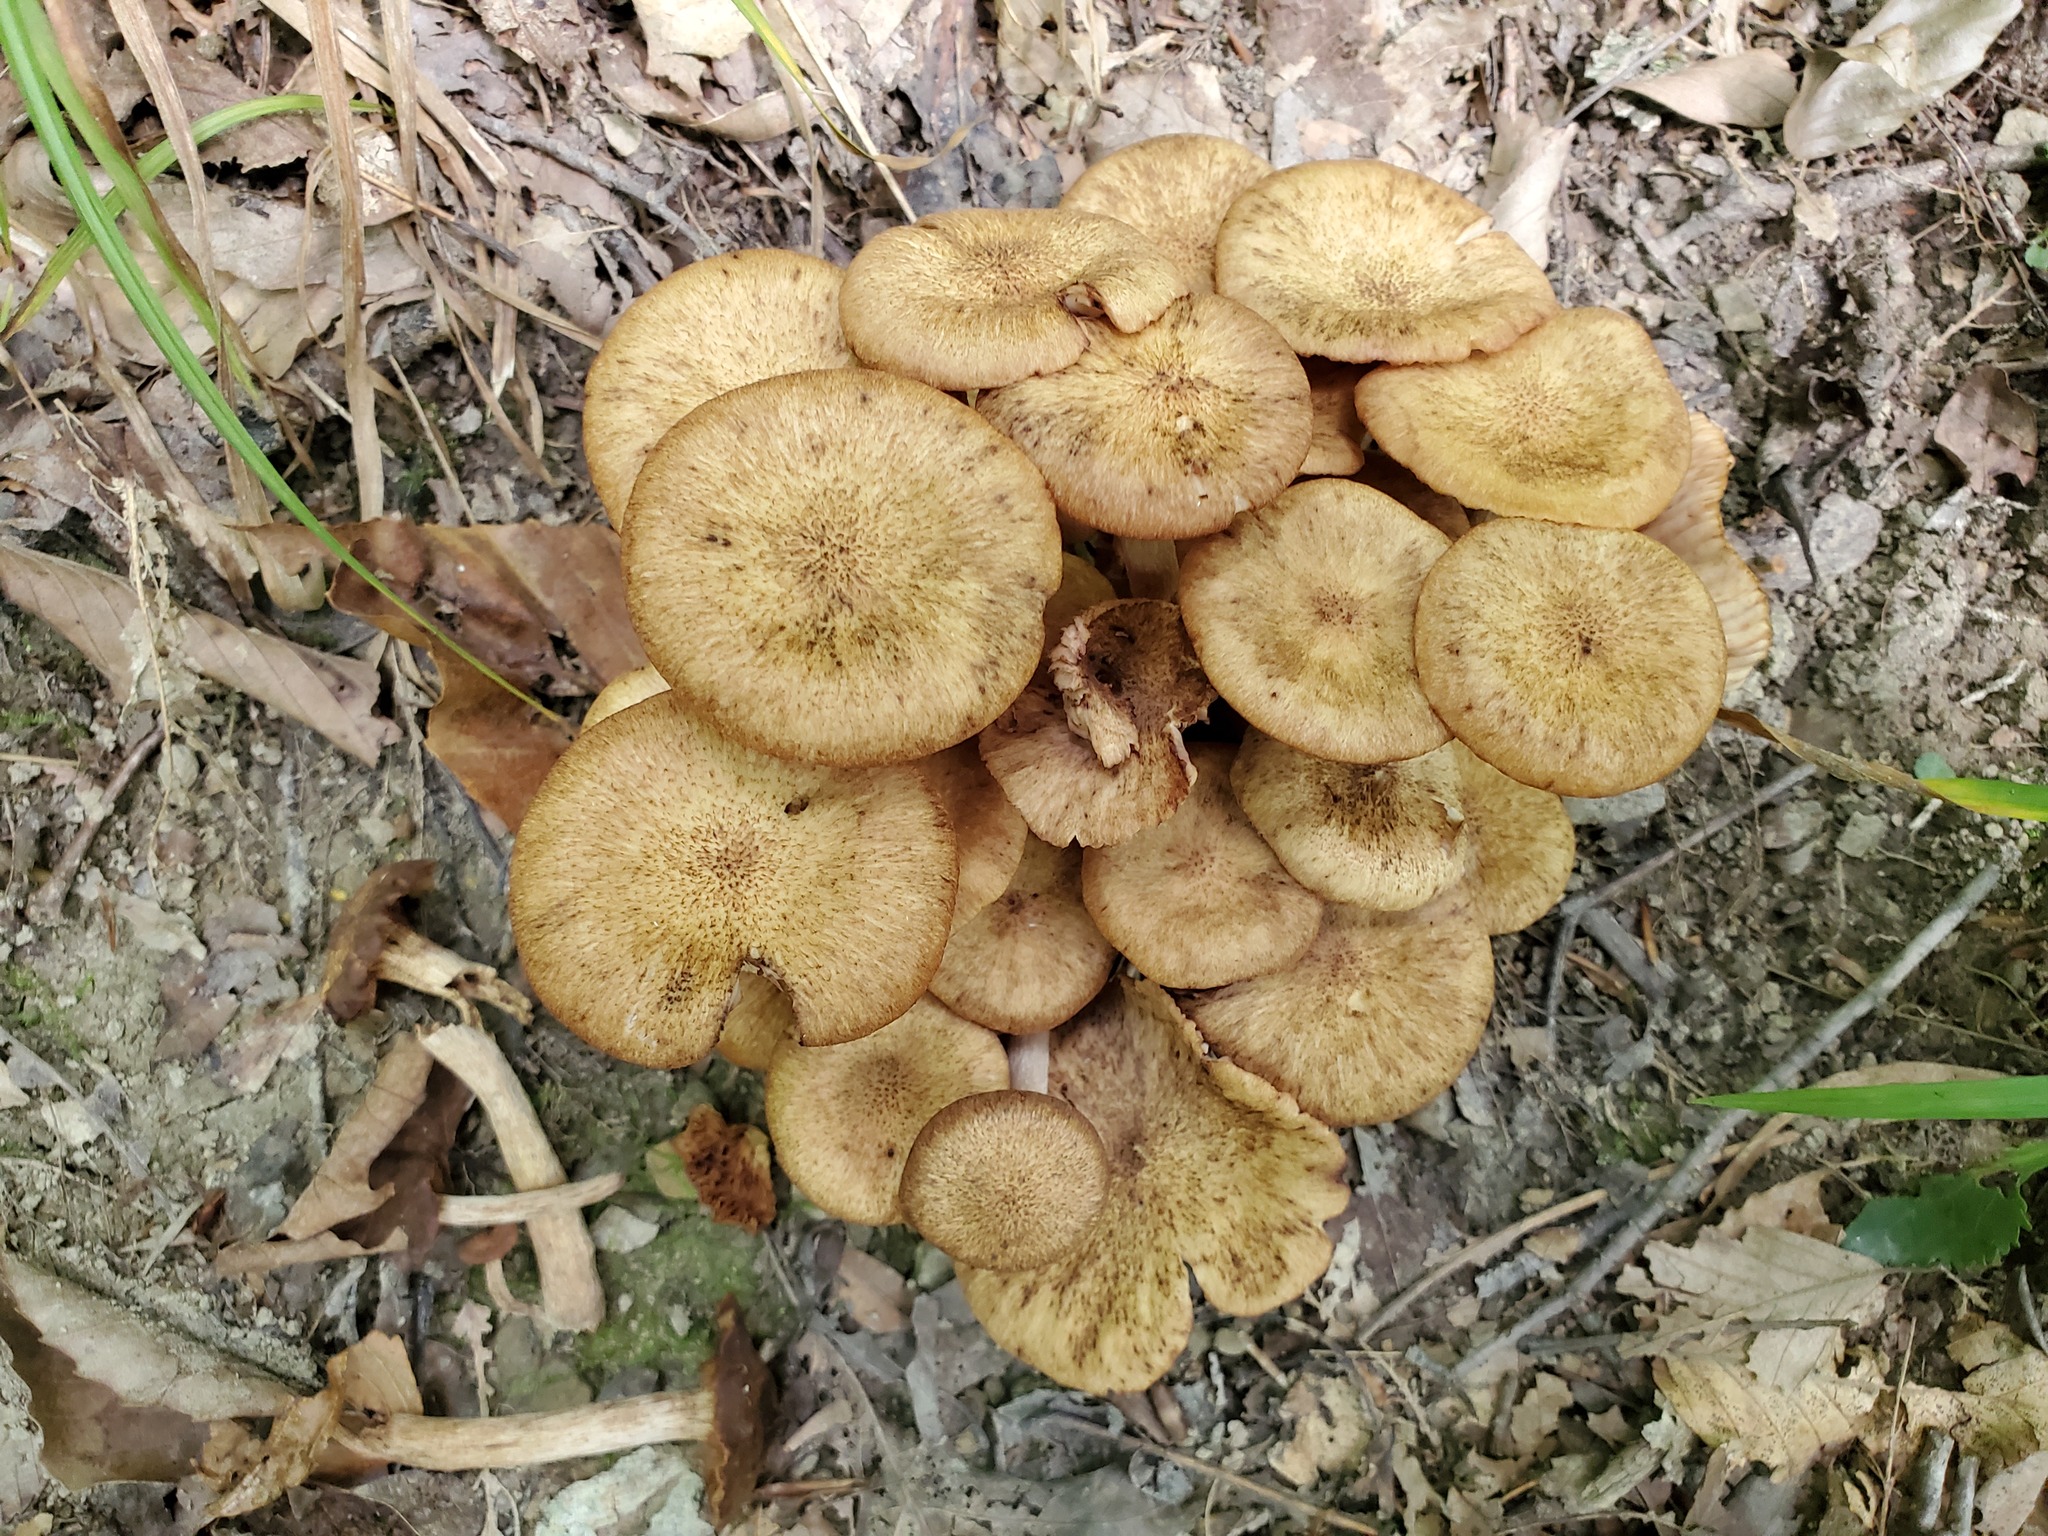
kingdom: Fungi
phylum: Basidiomycota
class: Agaricomycetes
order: Agaricales
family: Physalacriaceae
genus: Desarmillaria
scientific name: Desarmillaria caespitosa
